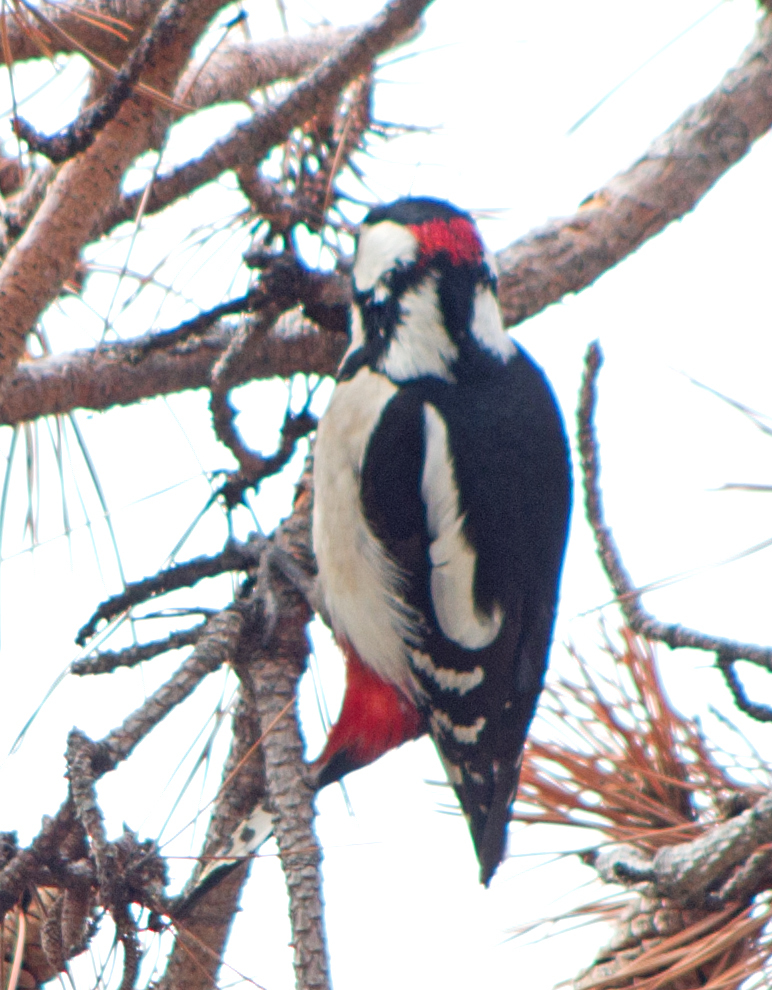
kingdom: Animalia
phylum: Chordata
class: Aves
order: Piciformes
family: Picidae
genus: Dendrocopos
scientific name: Dendrocopos major
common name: Great spotted woodpecker
